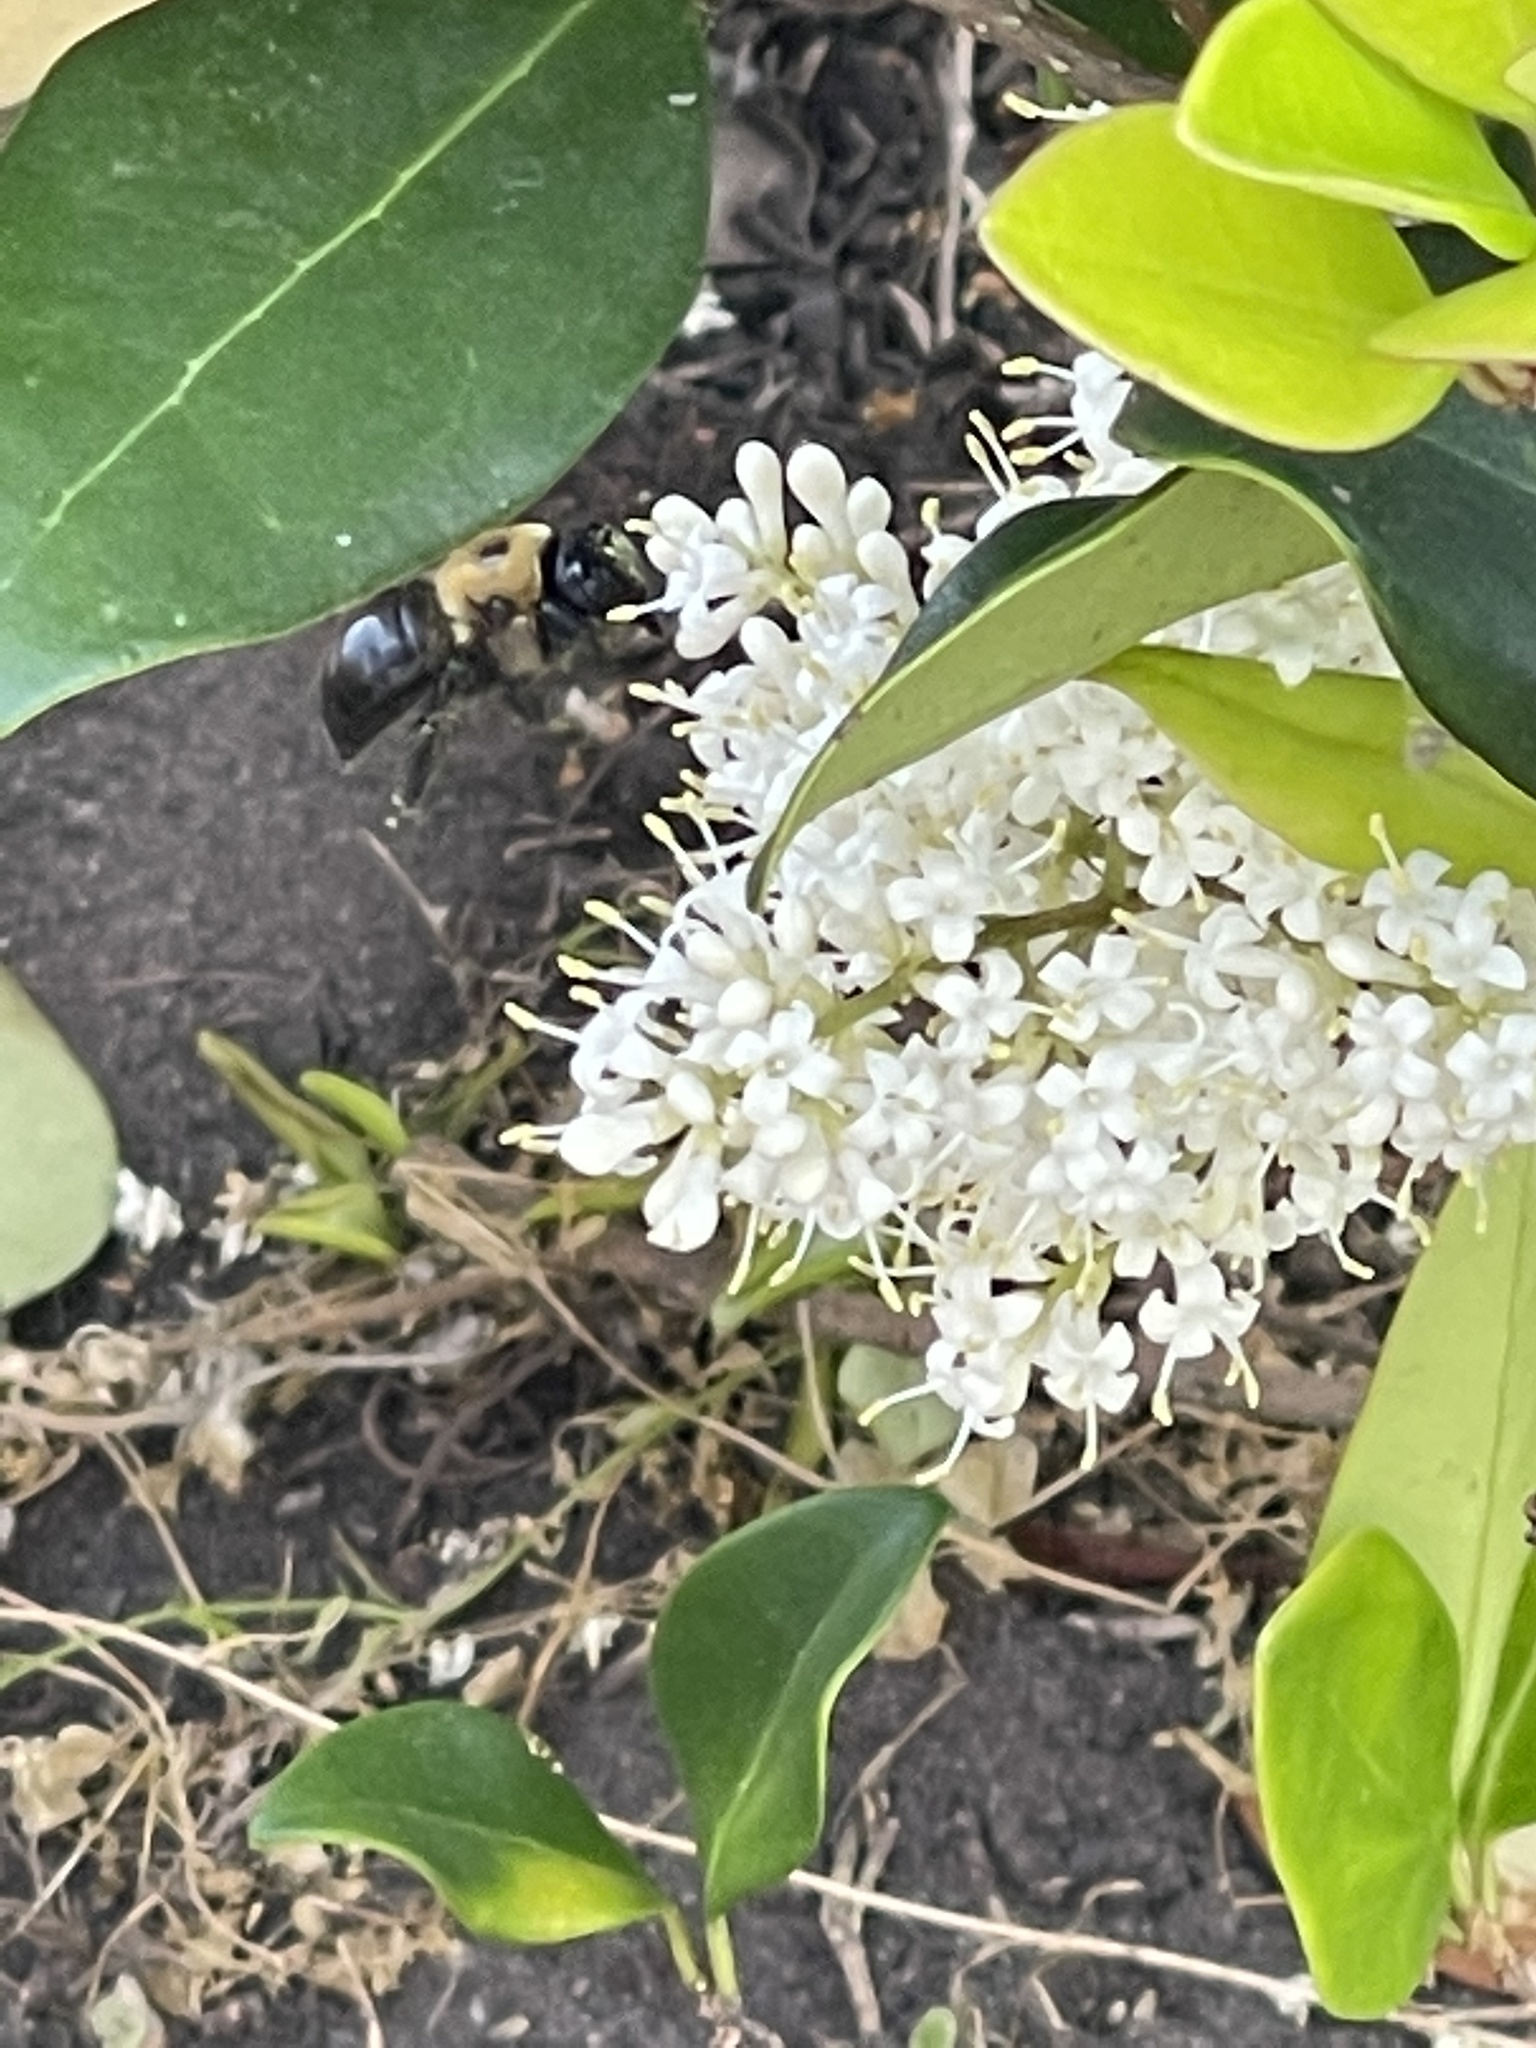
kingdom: Animalia
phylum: Arthropoda
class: Insecta
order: Hymenoptera
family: Apidae
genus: Xylocopa
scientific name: Xylocopa virginica
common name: Carpenter bee
